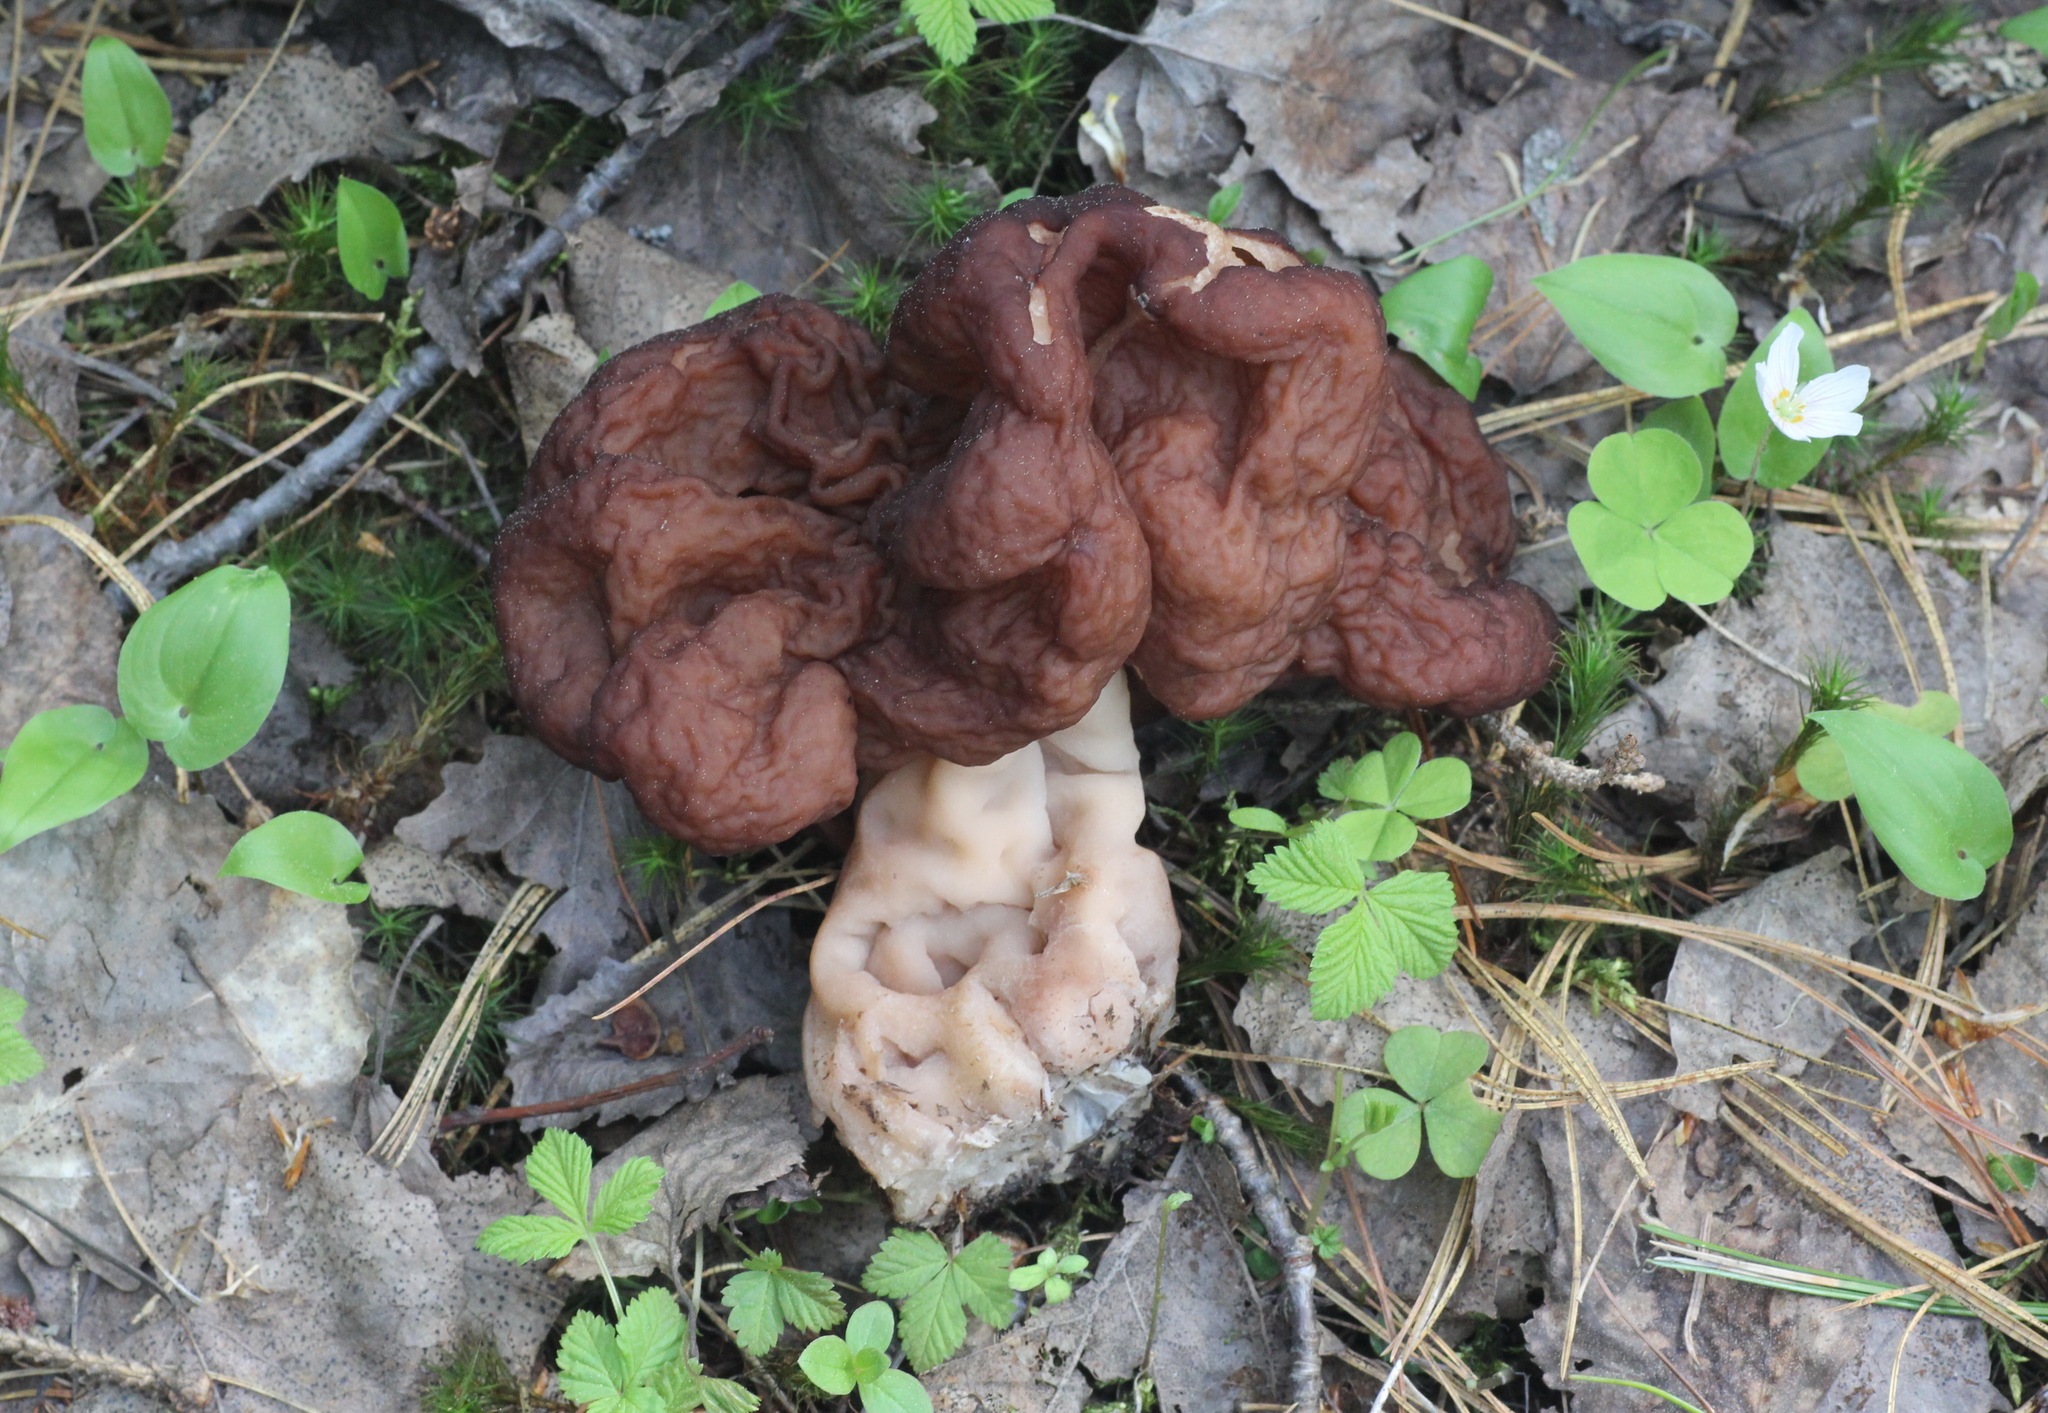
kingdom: Fungi
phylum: Ascomycota
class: Pezizomycetes
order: Pezizales
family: Discinaceae
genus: Gyromitra
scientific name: Gyromitra esculenta
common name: False morel
